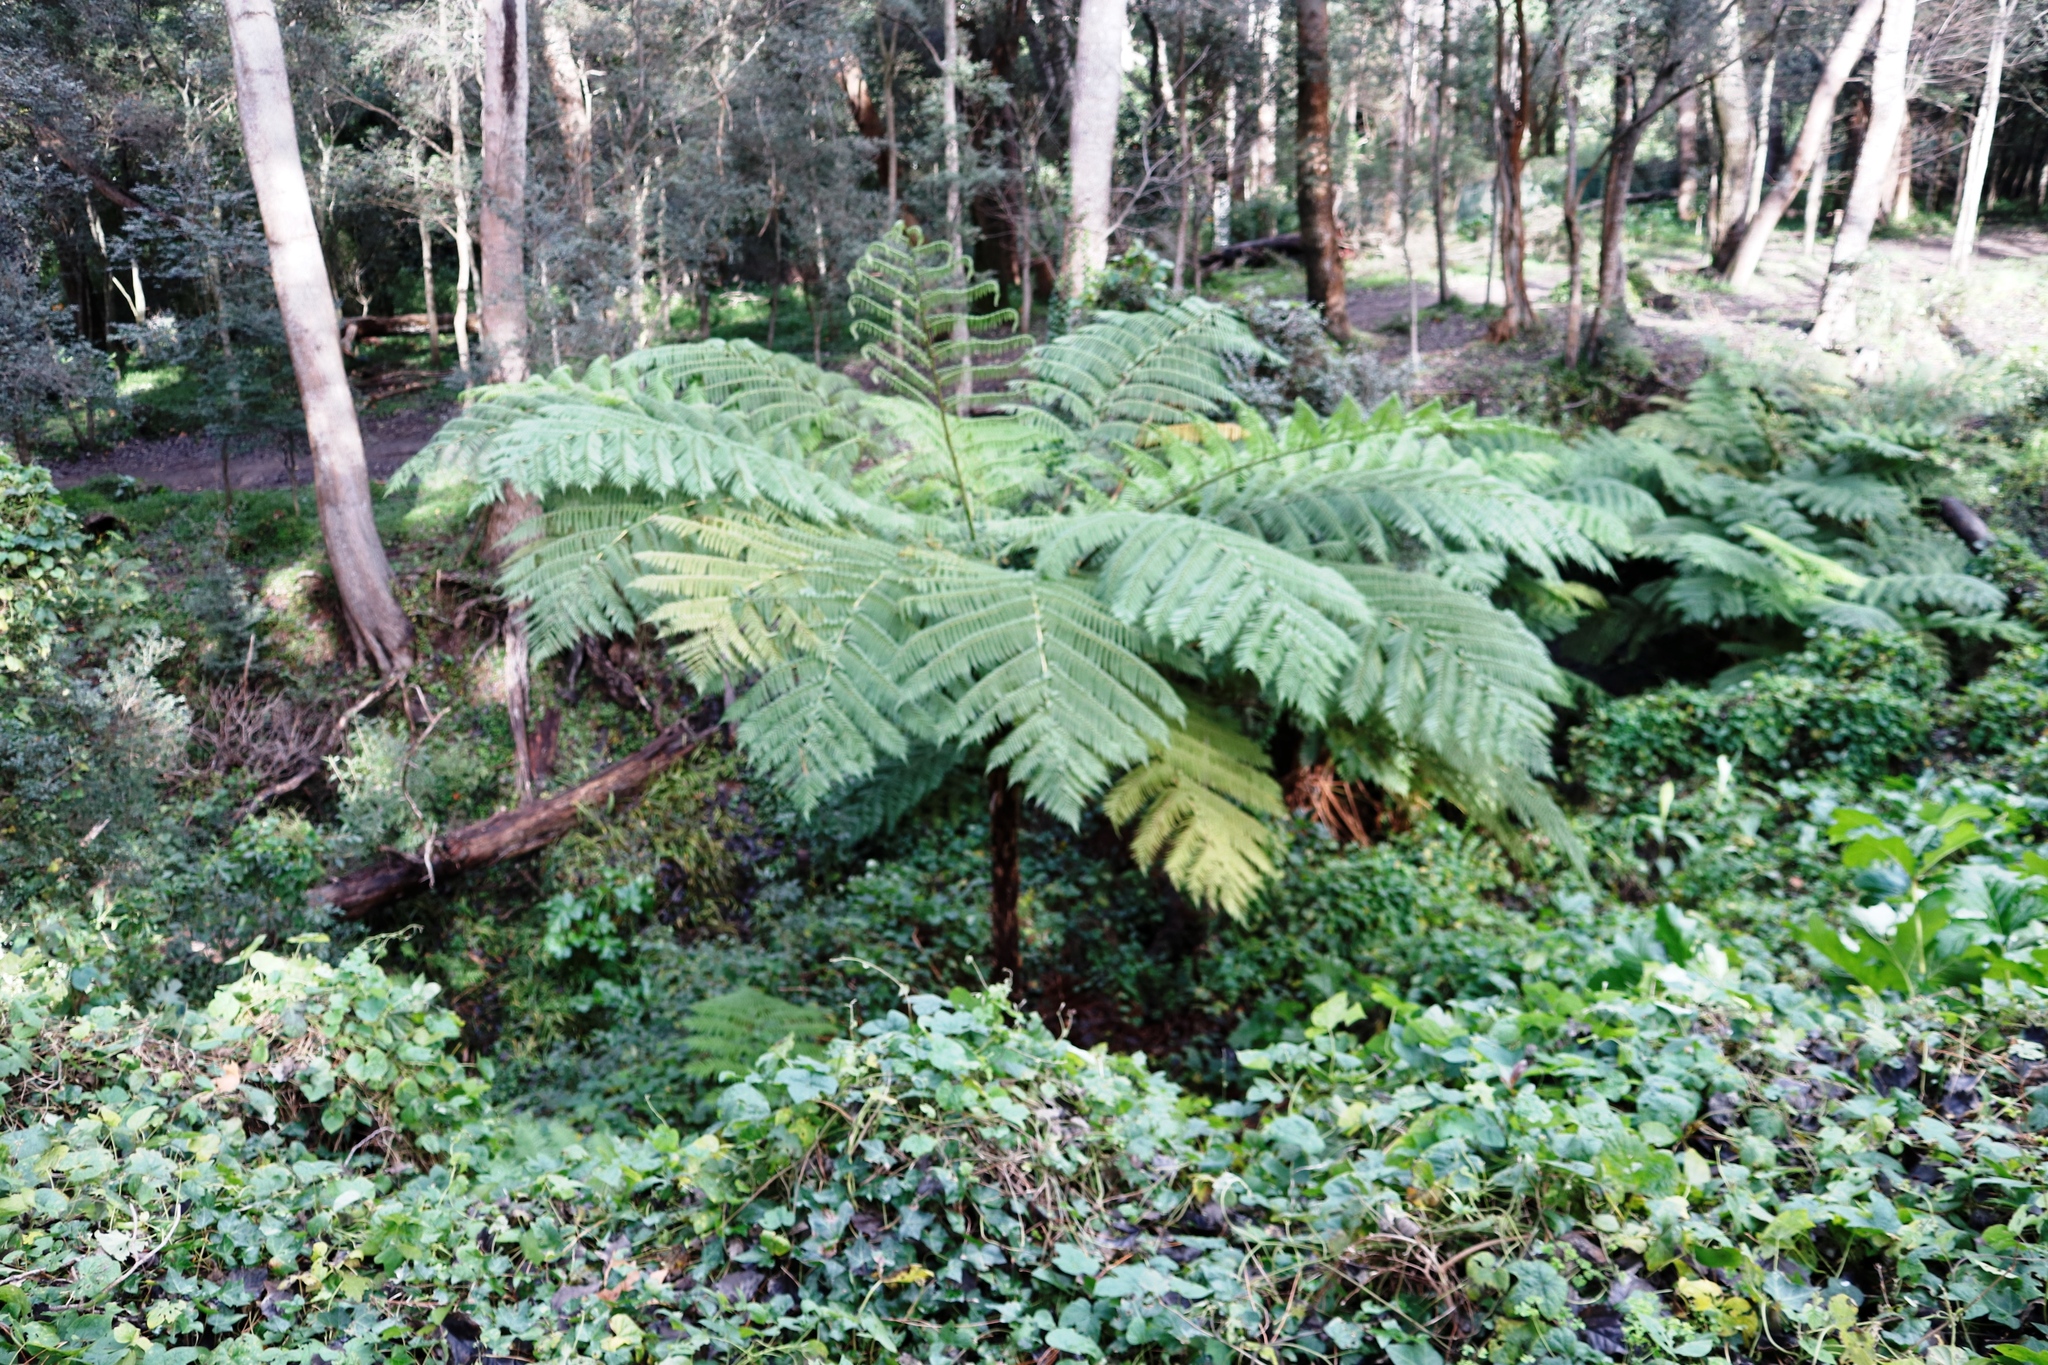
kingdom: Plantae
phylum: Tracheophyta
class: Polypodiopsida
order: Cyatheales
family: Cyatheaceae
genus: Sphaeropteris
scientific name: Sphaeropteris cooperi
